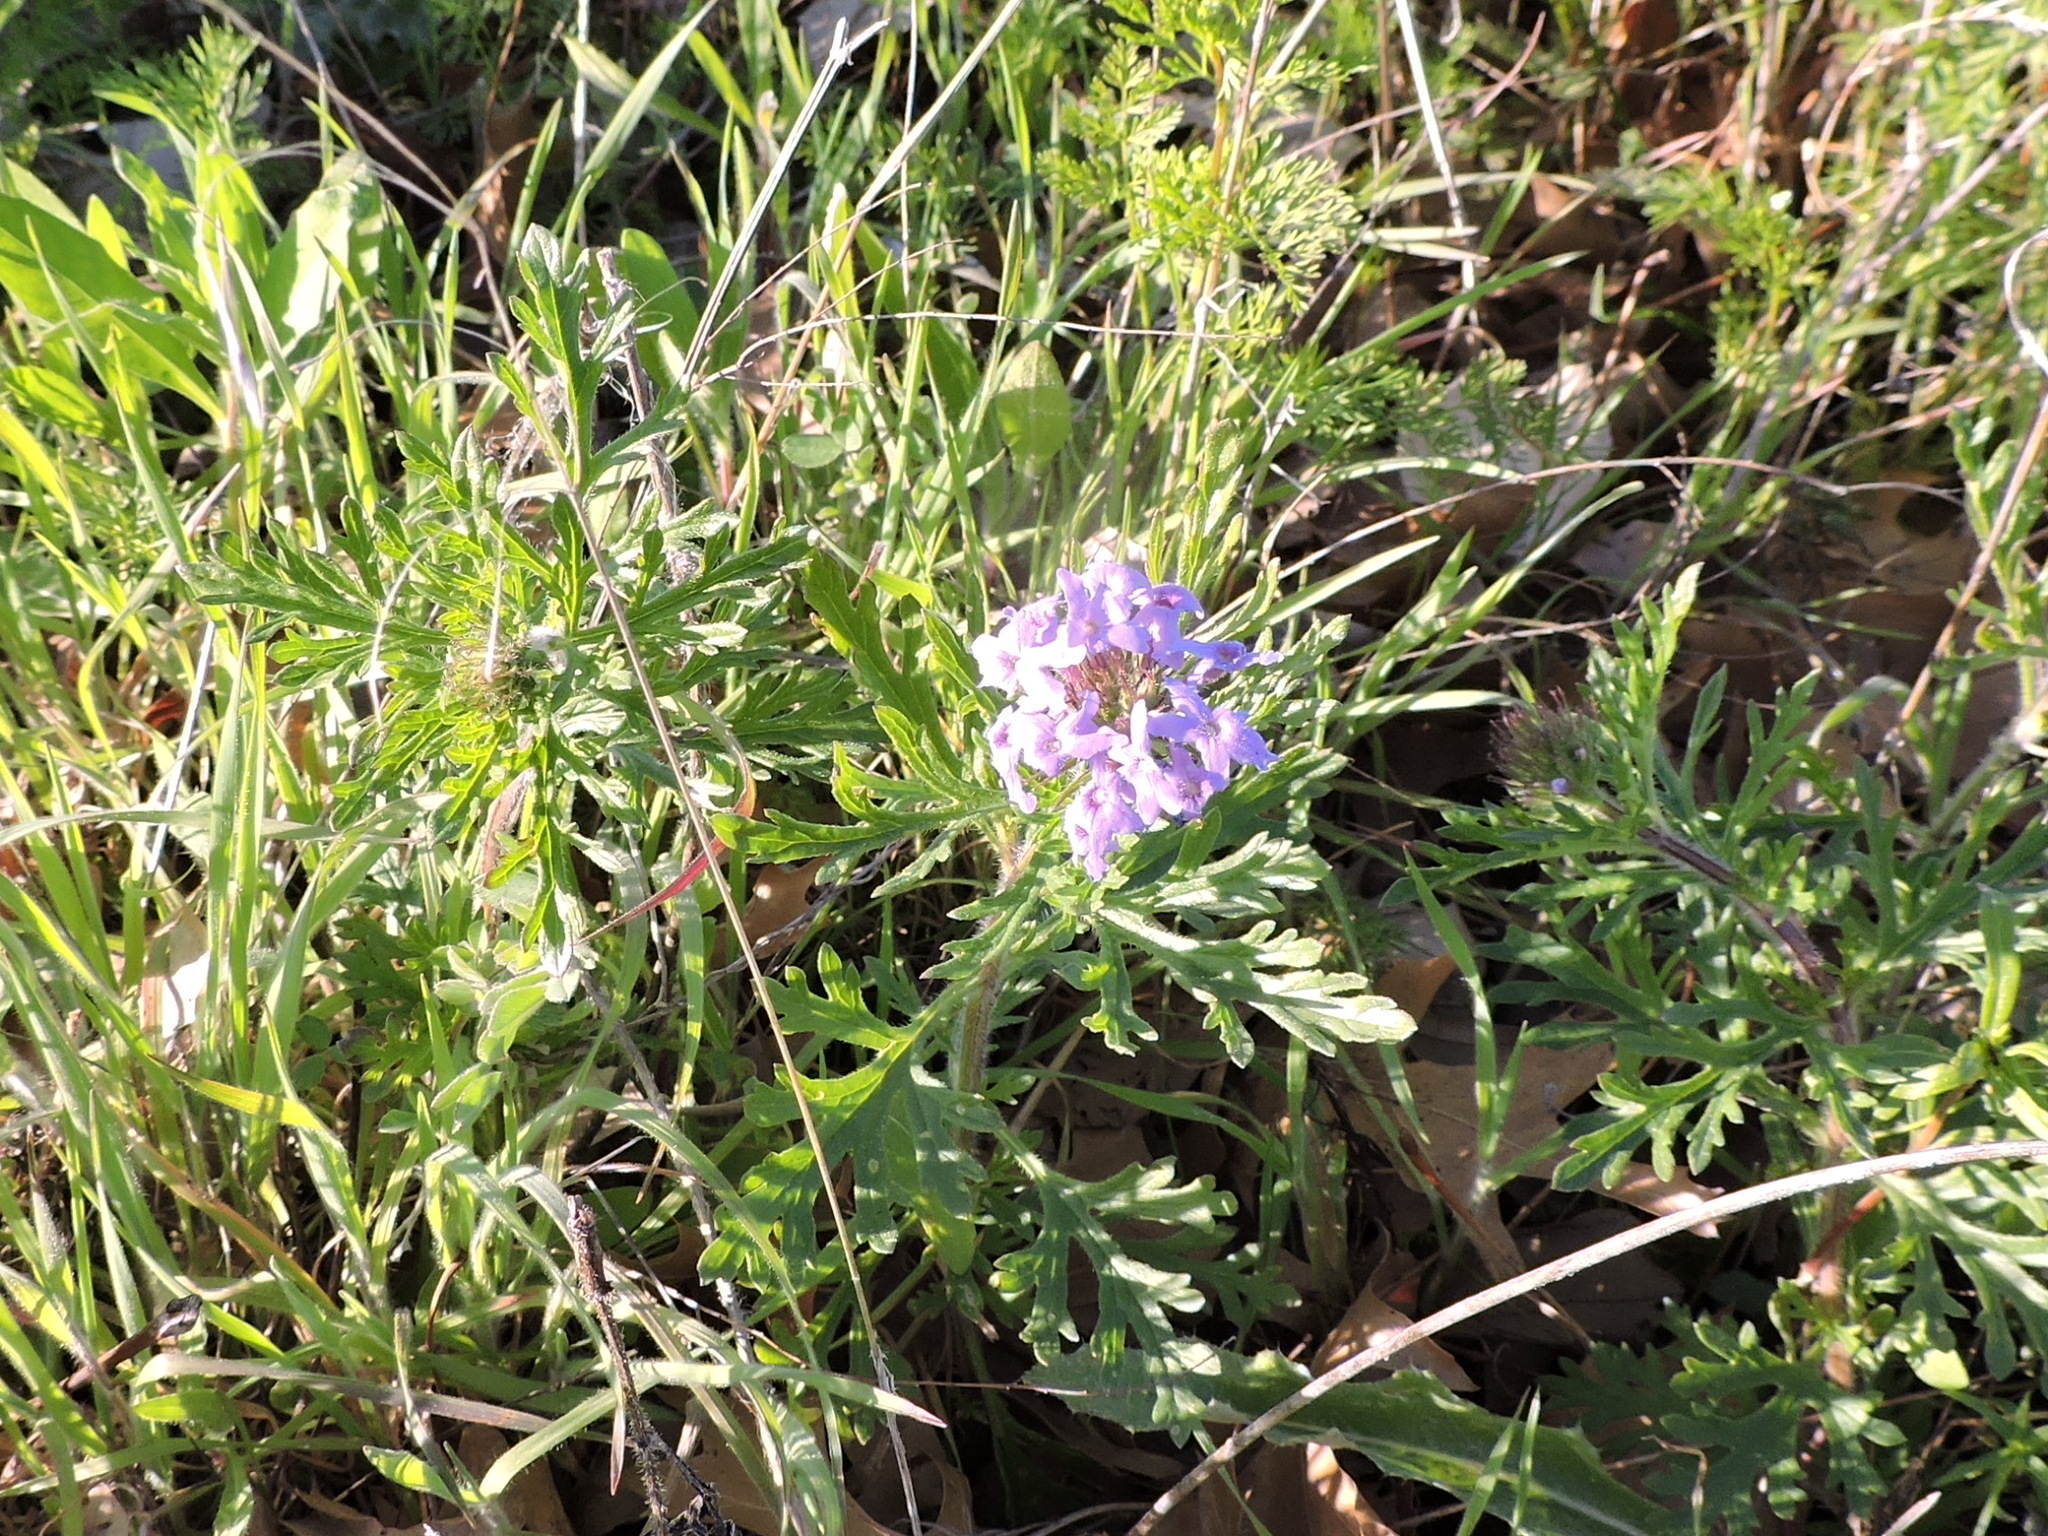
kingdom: Plantae
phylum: Tracheophyta
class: Magnoliopsida
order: Lamiales
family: Verbenaceae
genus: Verbena
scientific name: Verbena bipinnatifida
